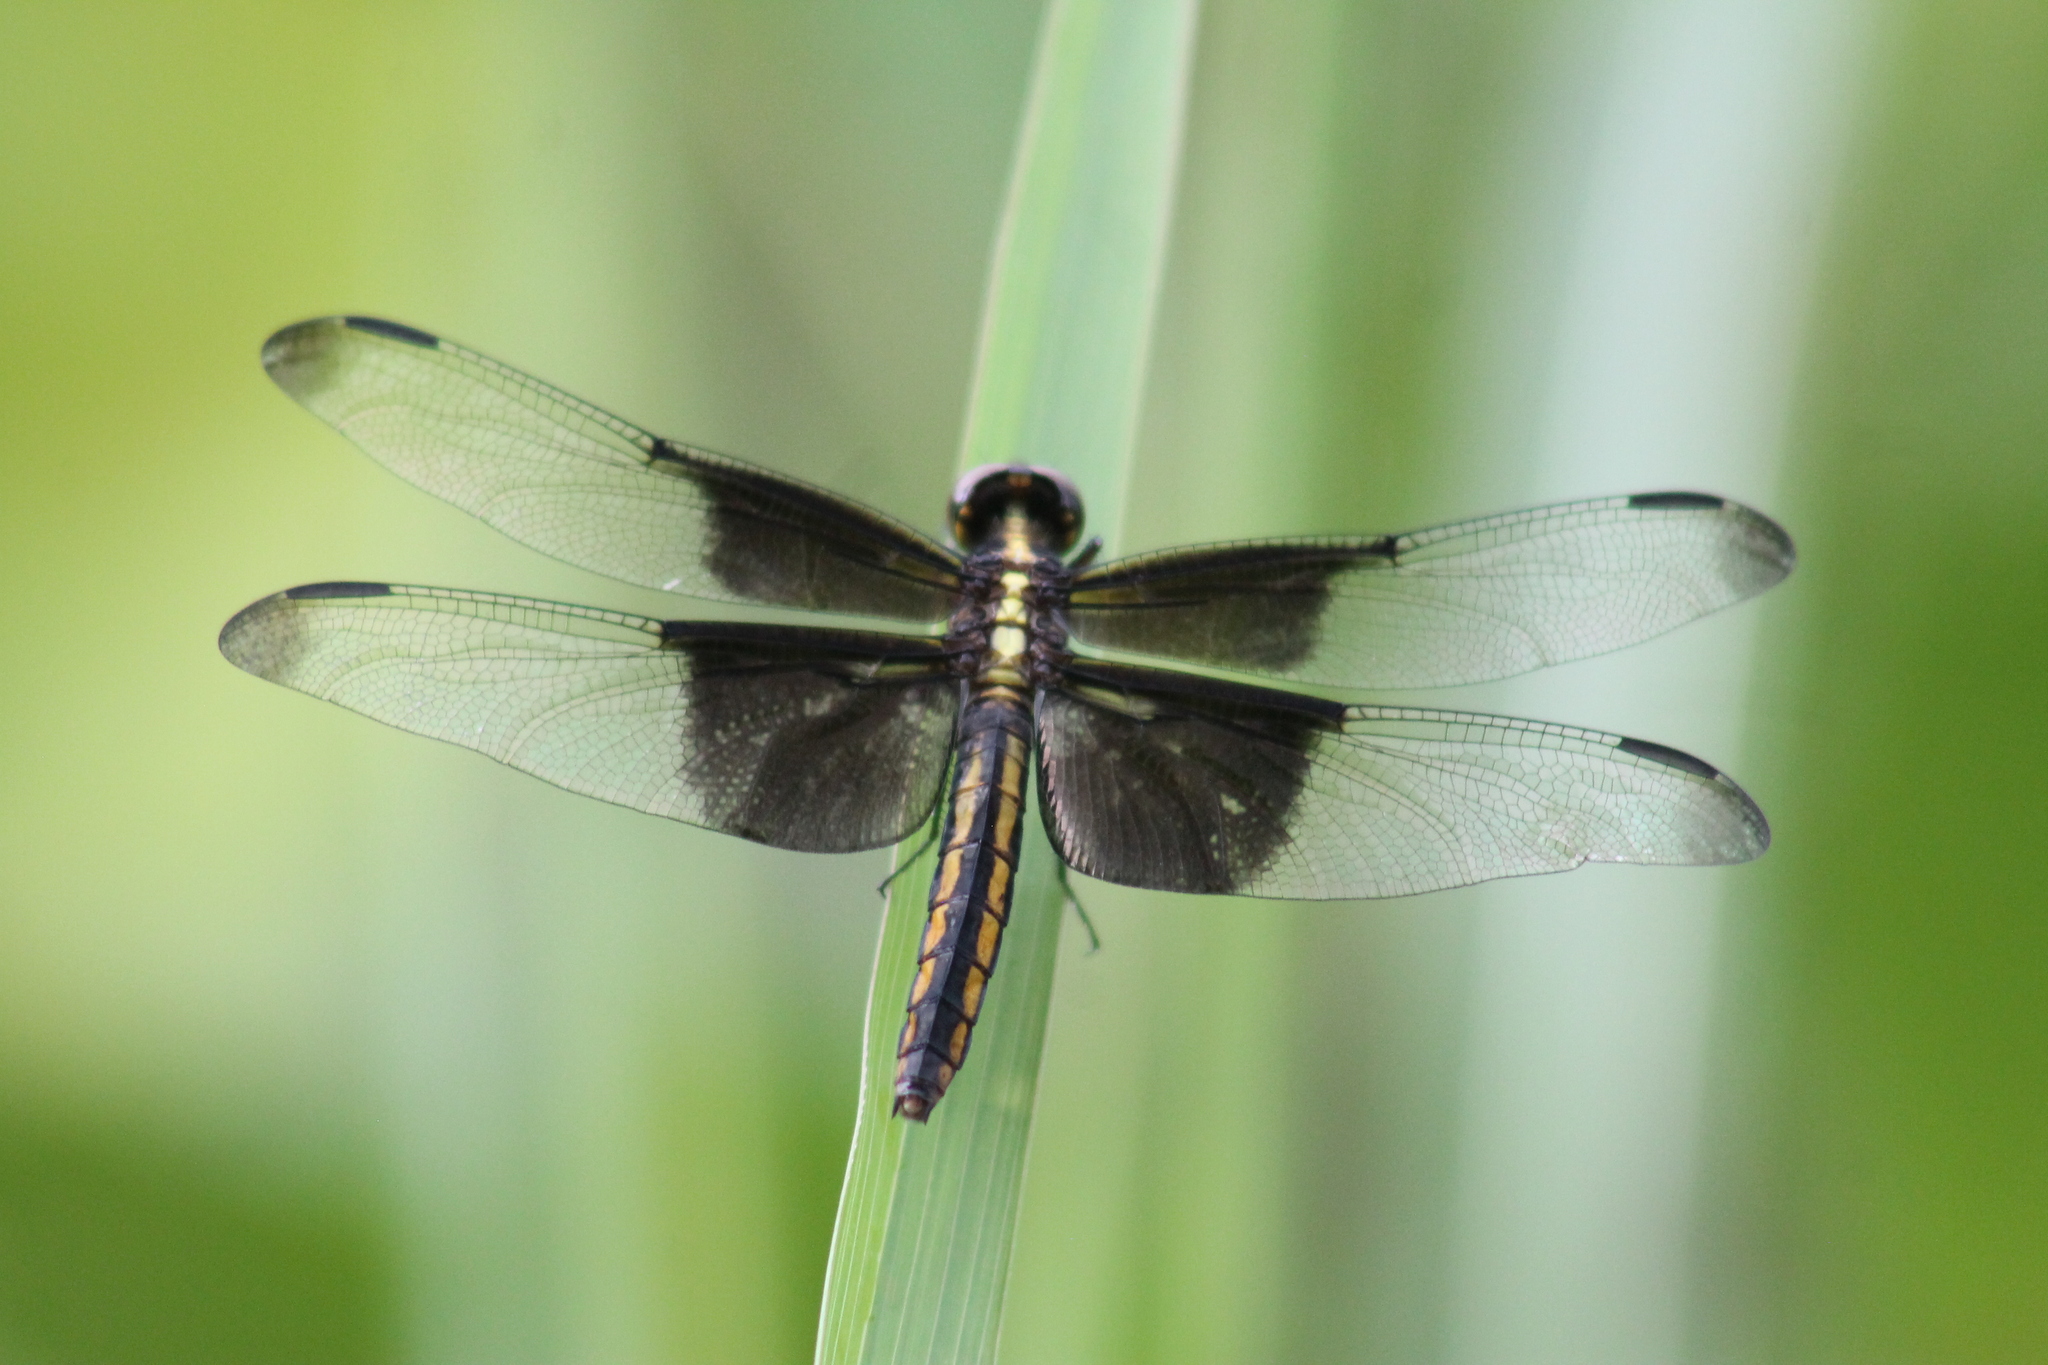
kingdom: Animalia
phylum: Arthropoda
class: Insecta
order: Odonata
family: Libellulidae
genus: Libellula
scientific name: Libellula luctuosa
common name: Widow skimmer
